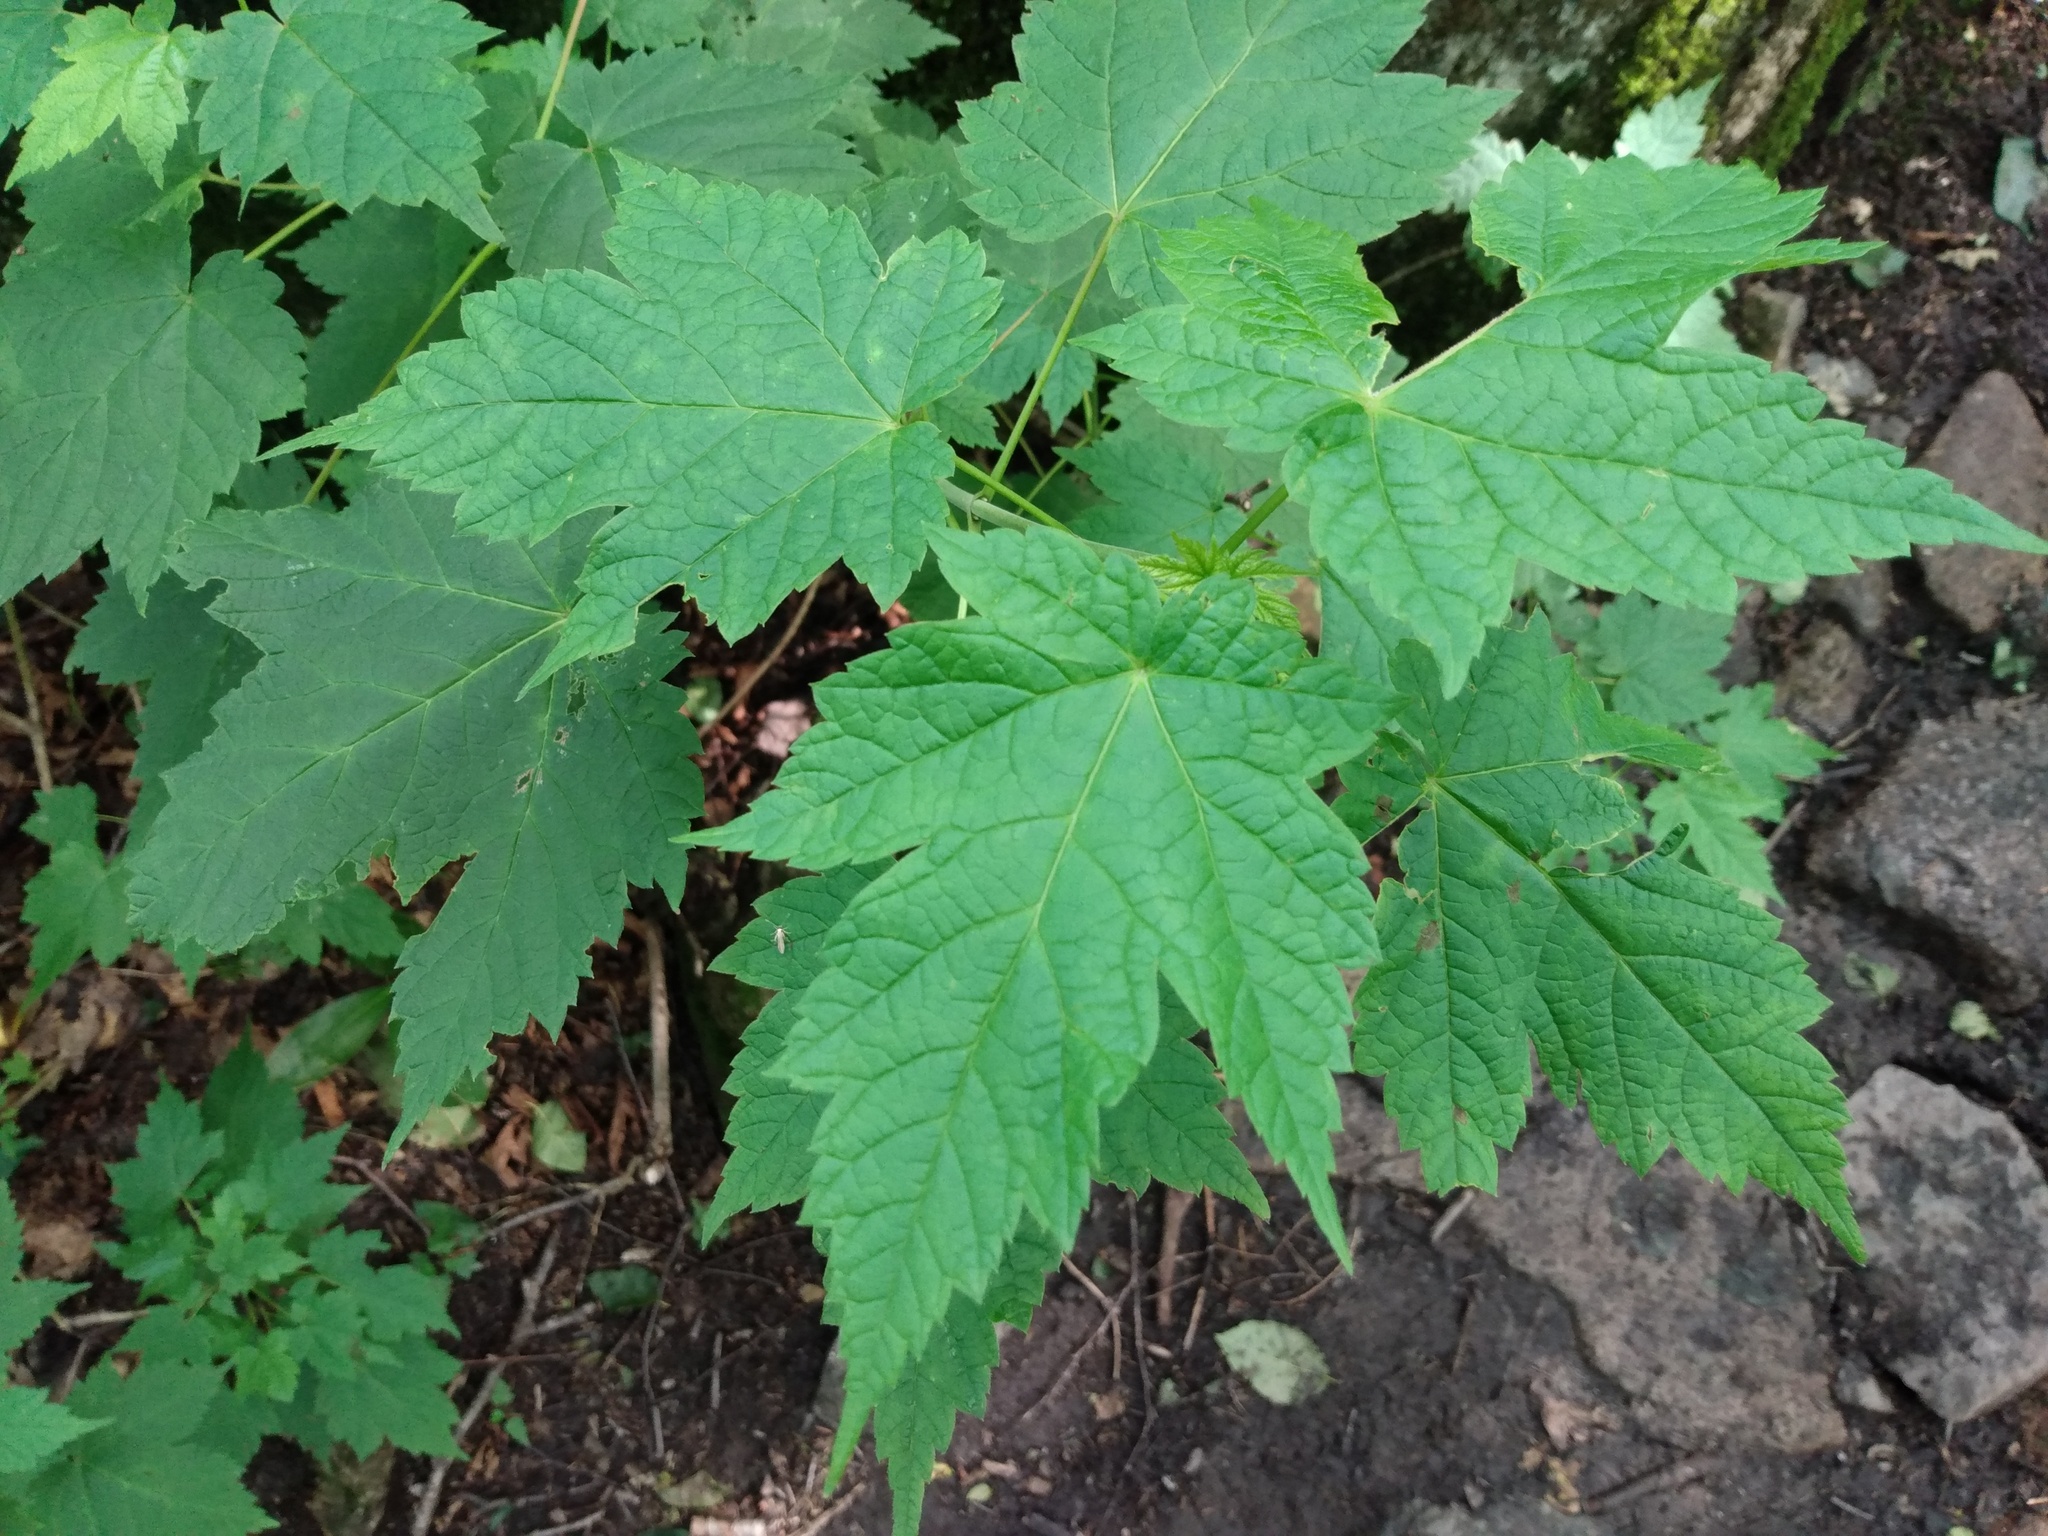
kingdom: Plantae
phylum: Tracheophyta
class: Magnoliopsida
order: Sapindales
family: Sapindaceae
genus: Acer
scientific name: Acer spicatum
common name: Mountain maple
